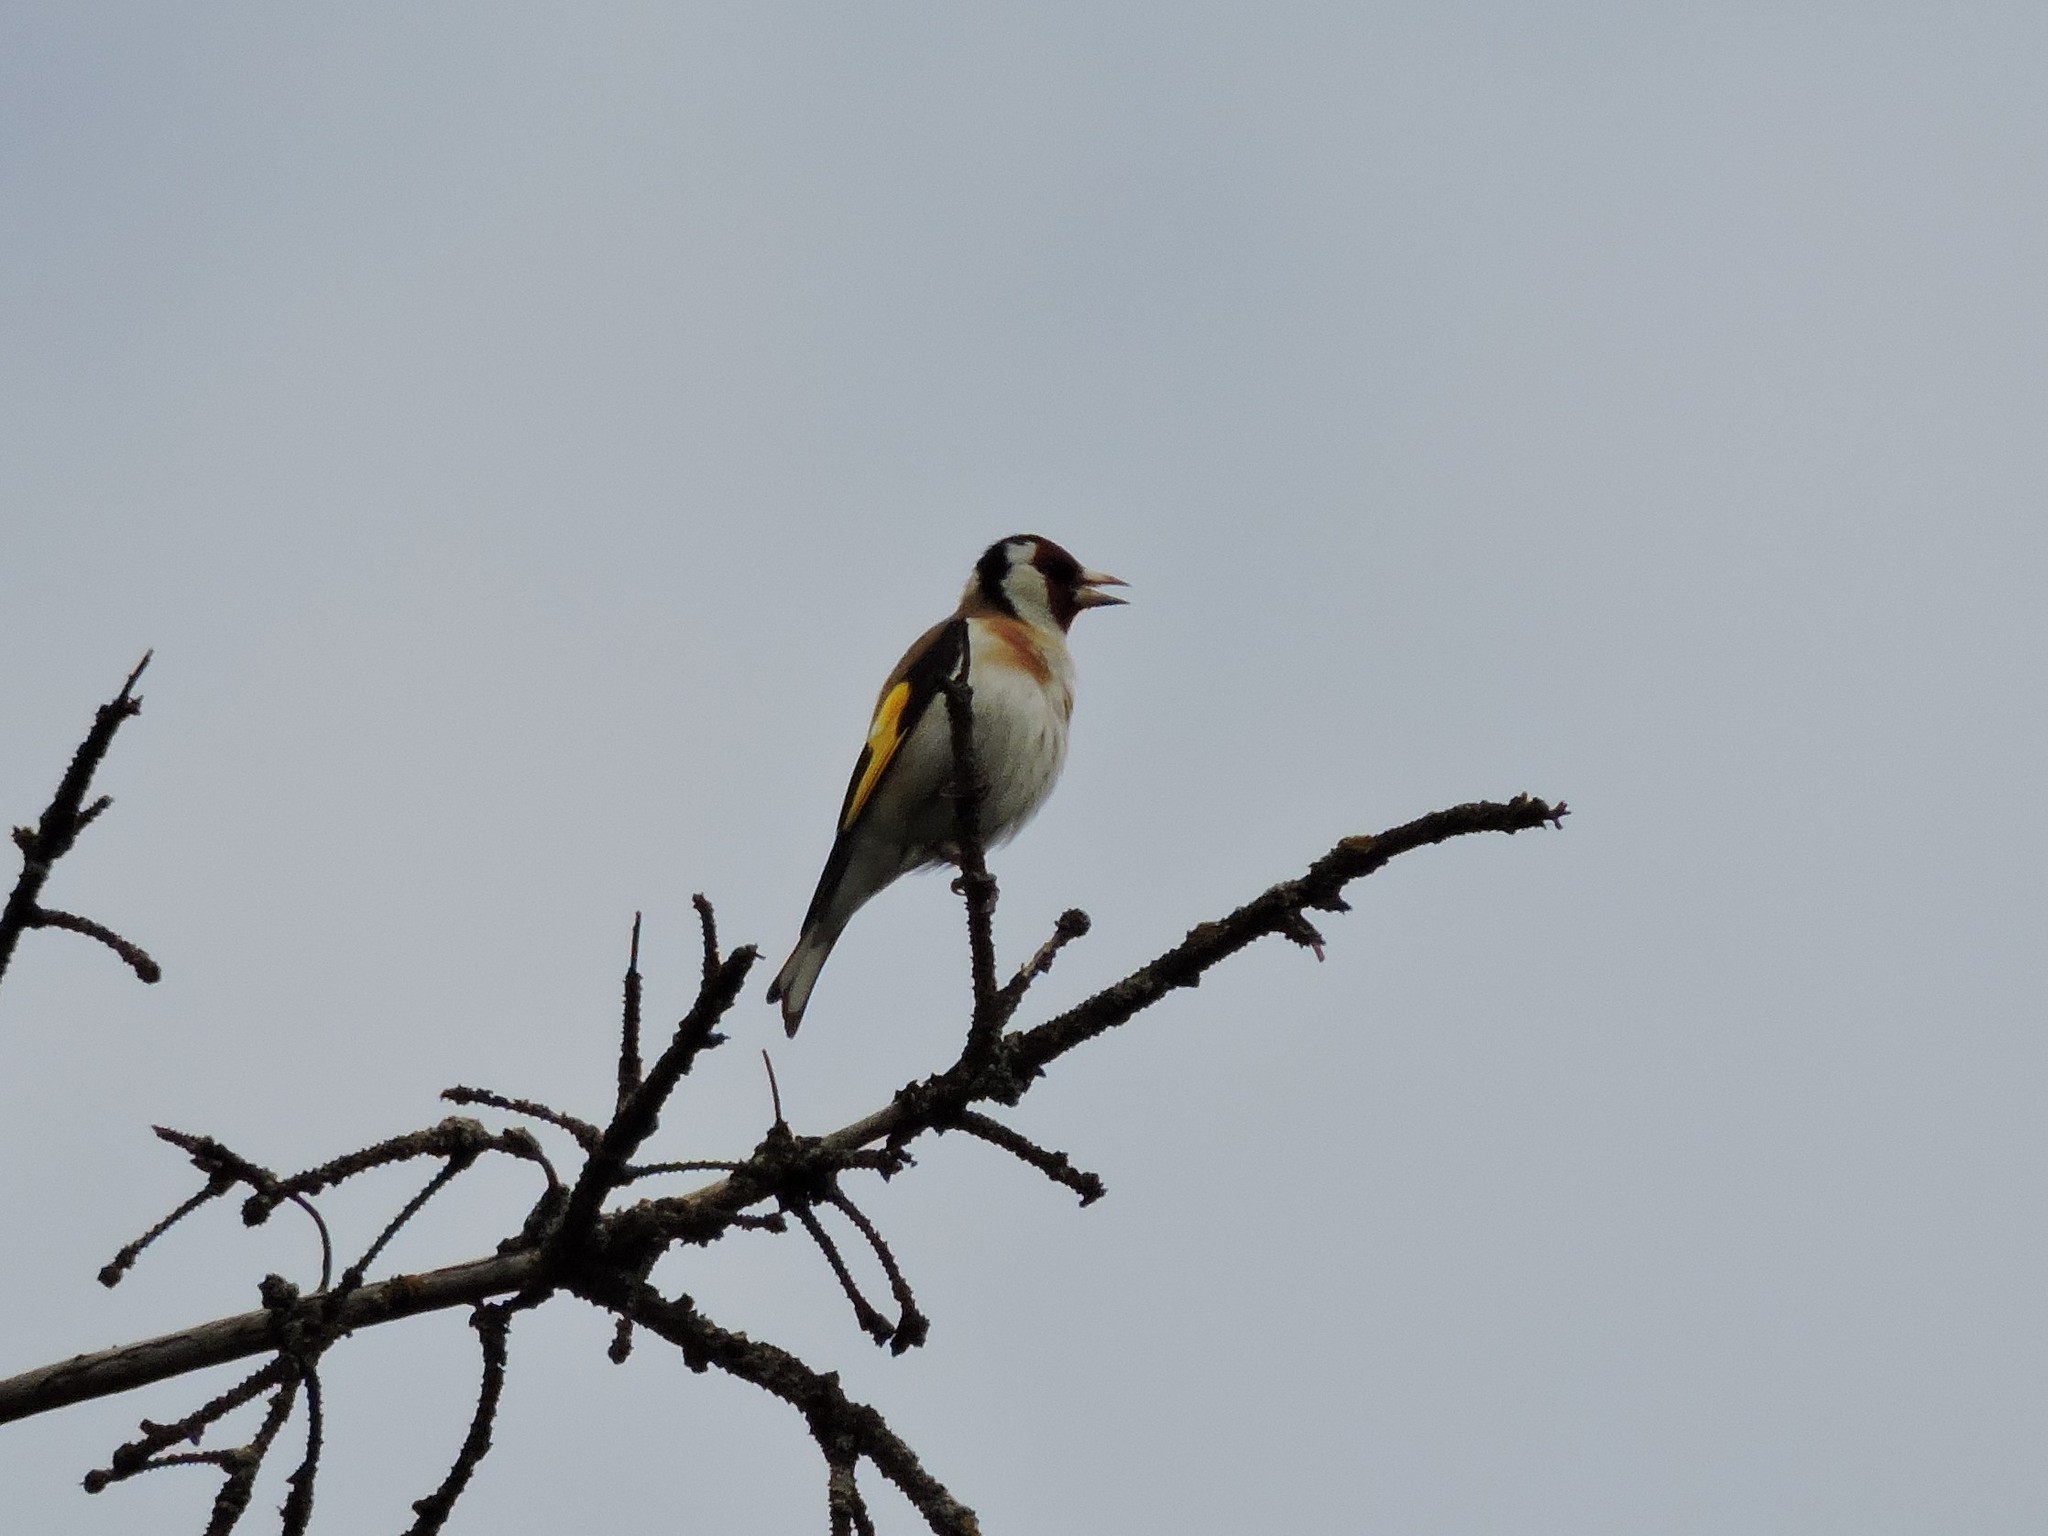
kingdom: Animalia
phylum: Chordata
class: Aves
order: Passeriformes
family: Fringillidae
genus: Carduelis
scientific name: Carduelis carduelis
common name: European goldfinch
